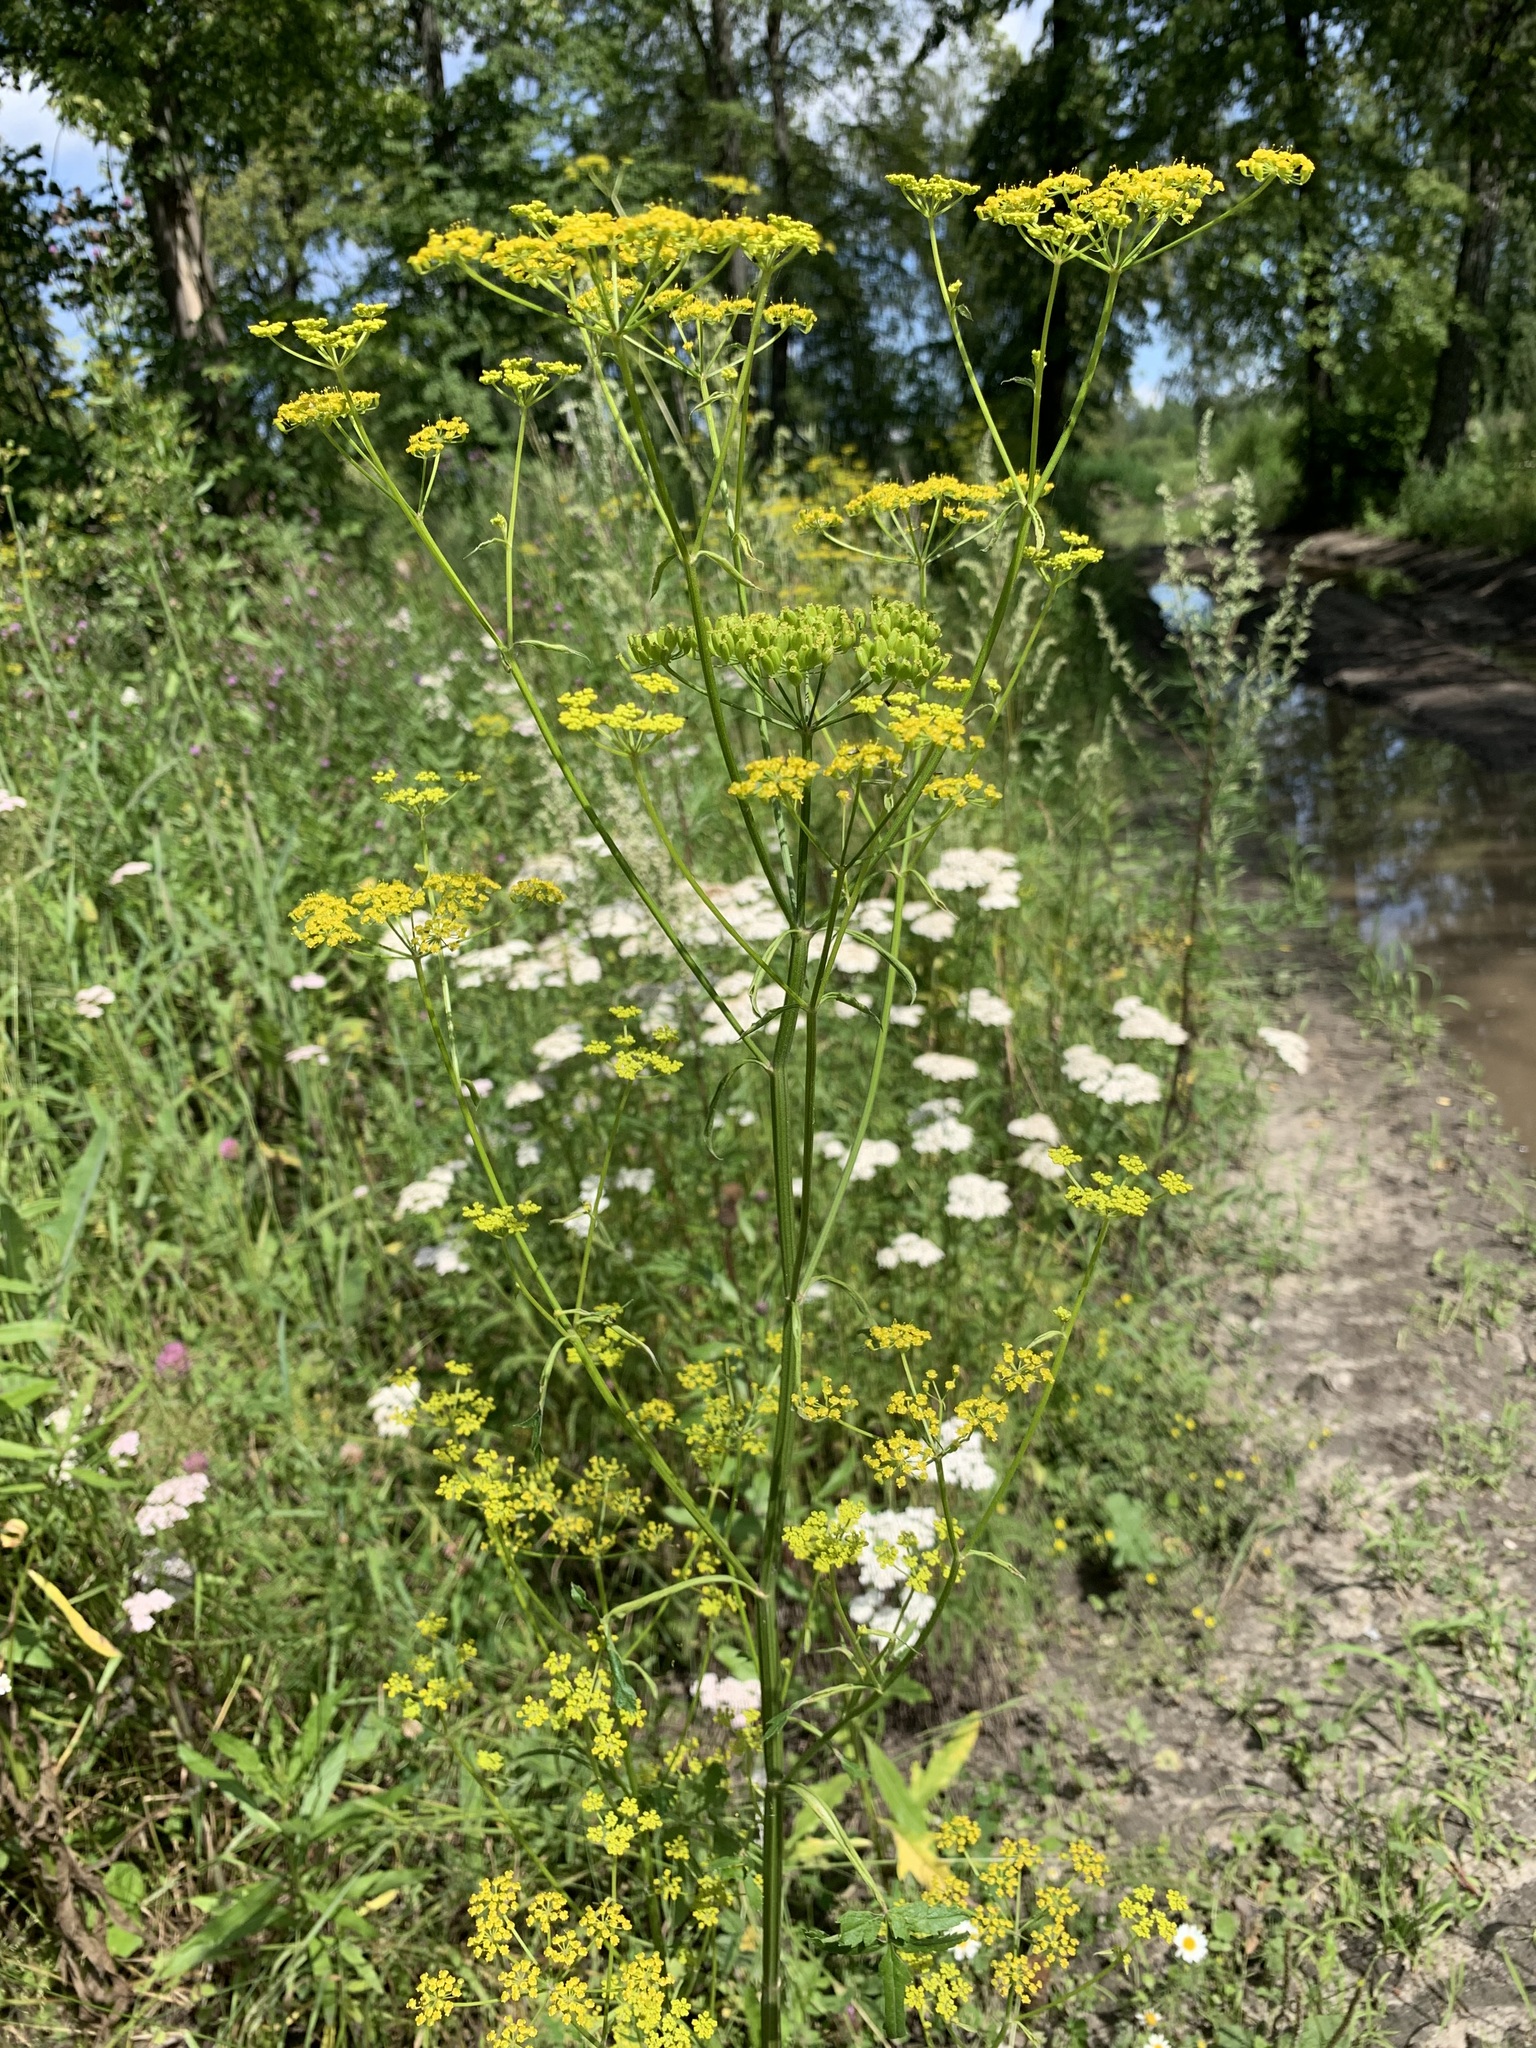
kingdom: Plantae
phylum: Tracheophyta
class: Magnoliopsida
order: Apiales
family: Apiaceae
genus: Pastinaca
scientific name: Pastinaca sativa
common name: Wild parsnip
